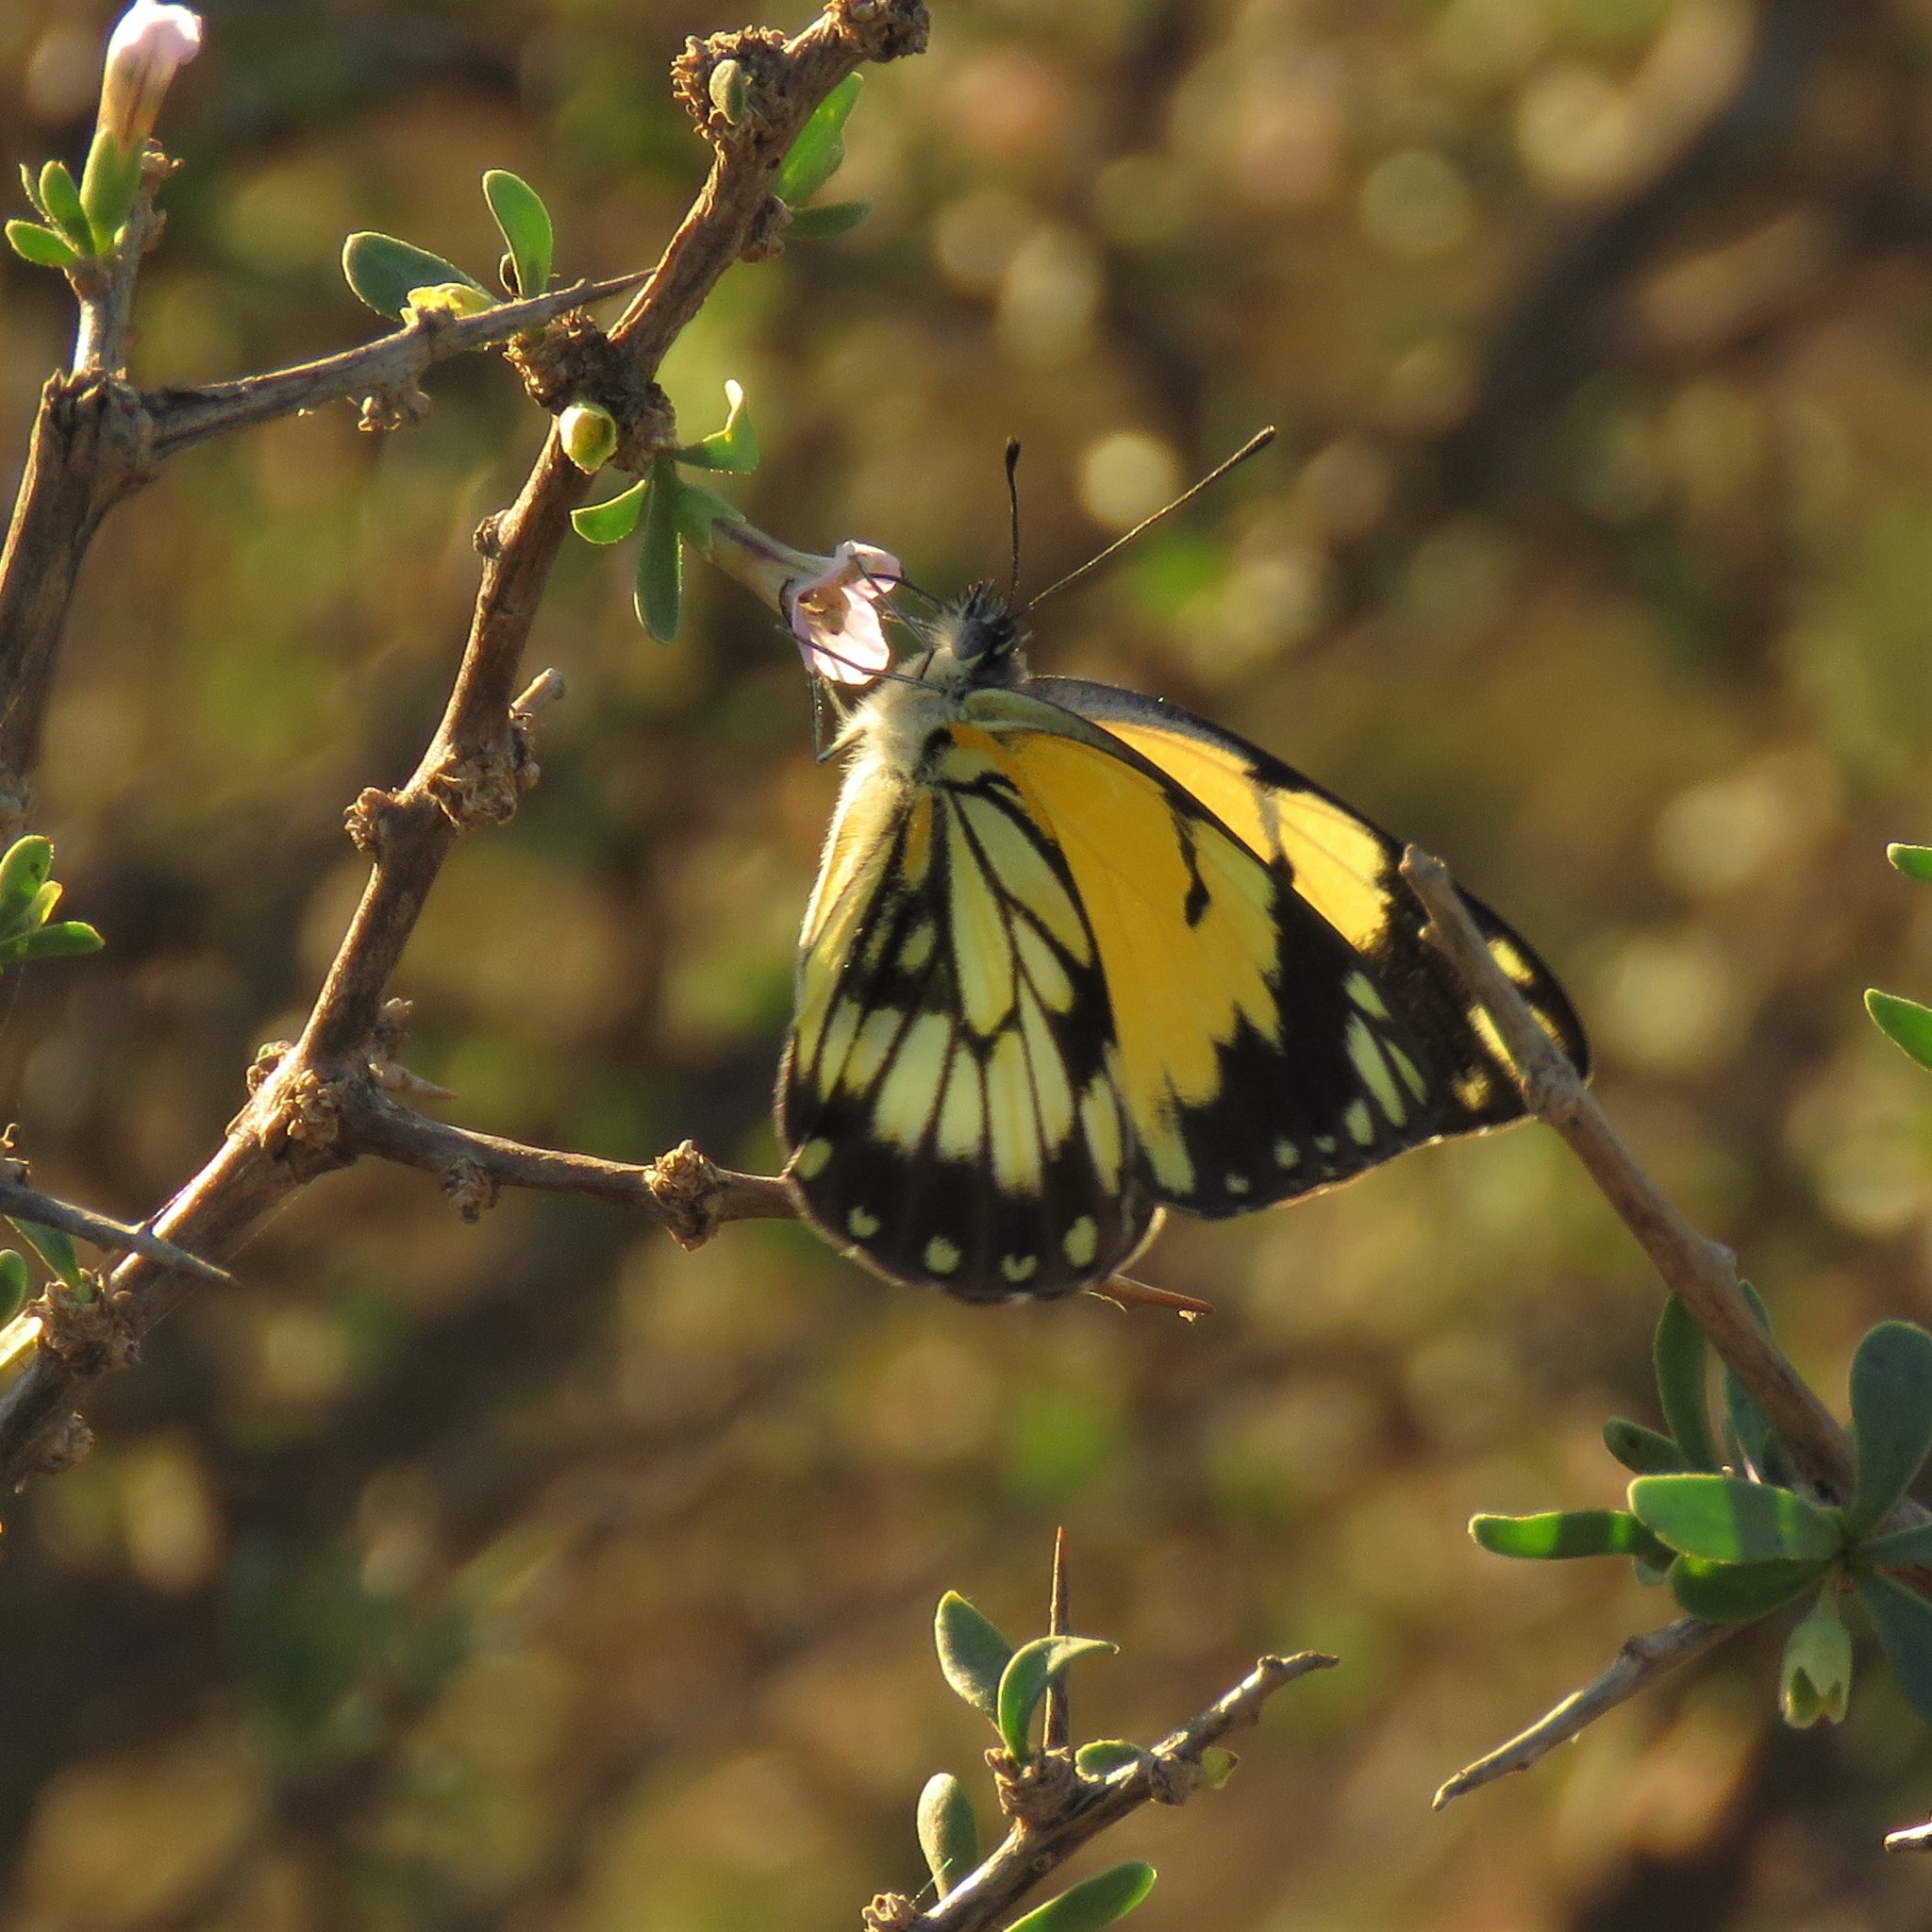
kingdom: Animalia
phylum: Arthropoda
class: Insecta
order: Lepidoptera
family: Pieridae
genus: Belenois
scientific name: Belenois creona
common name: African caper white
